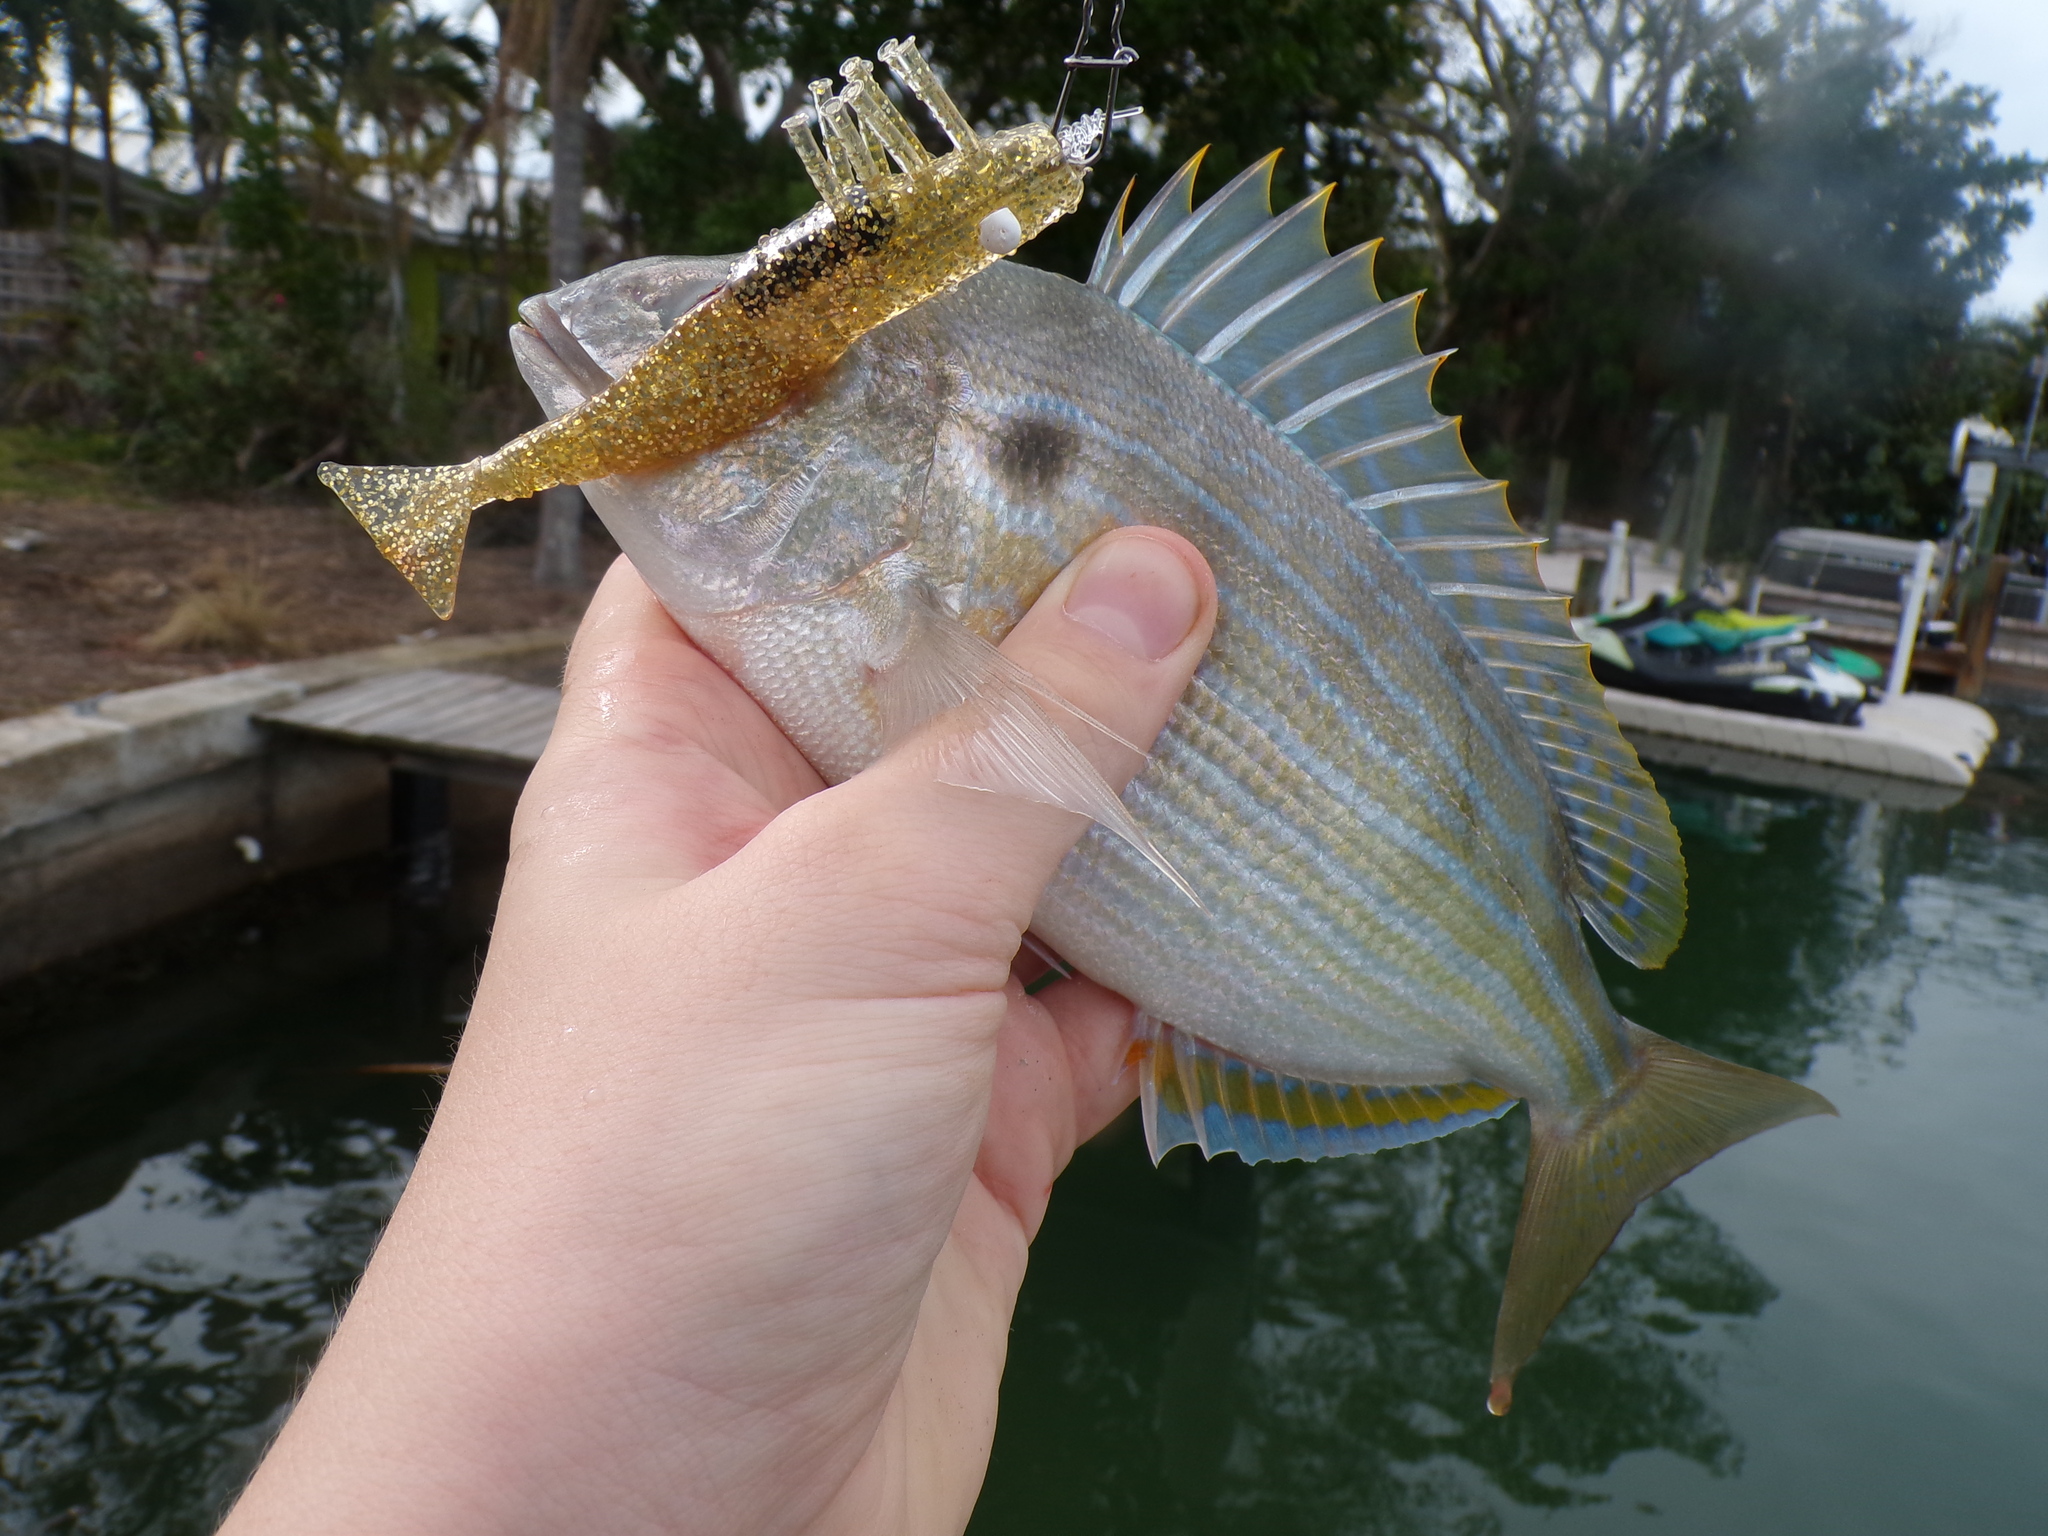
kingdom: Animalia
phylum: Chordata
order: Perciformes
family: Sparidae
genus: Lagodon
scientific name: Lagodon rhomboides
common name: Pinfish
